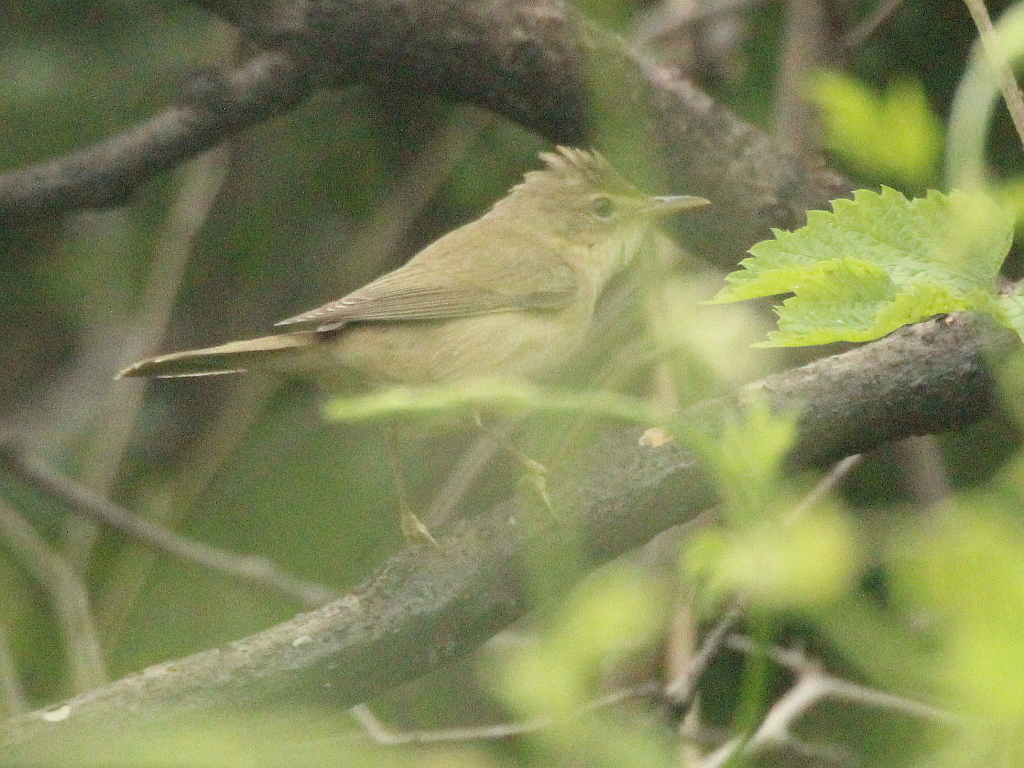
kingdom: Animalia
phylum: Chordata
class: Aves
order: Passeriformes
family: Acrocephalidae
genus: Acrocephalus
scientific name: Acrocephalus palustris
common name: Marsh warbler
